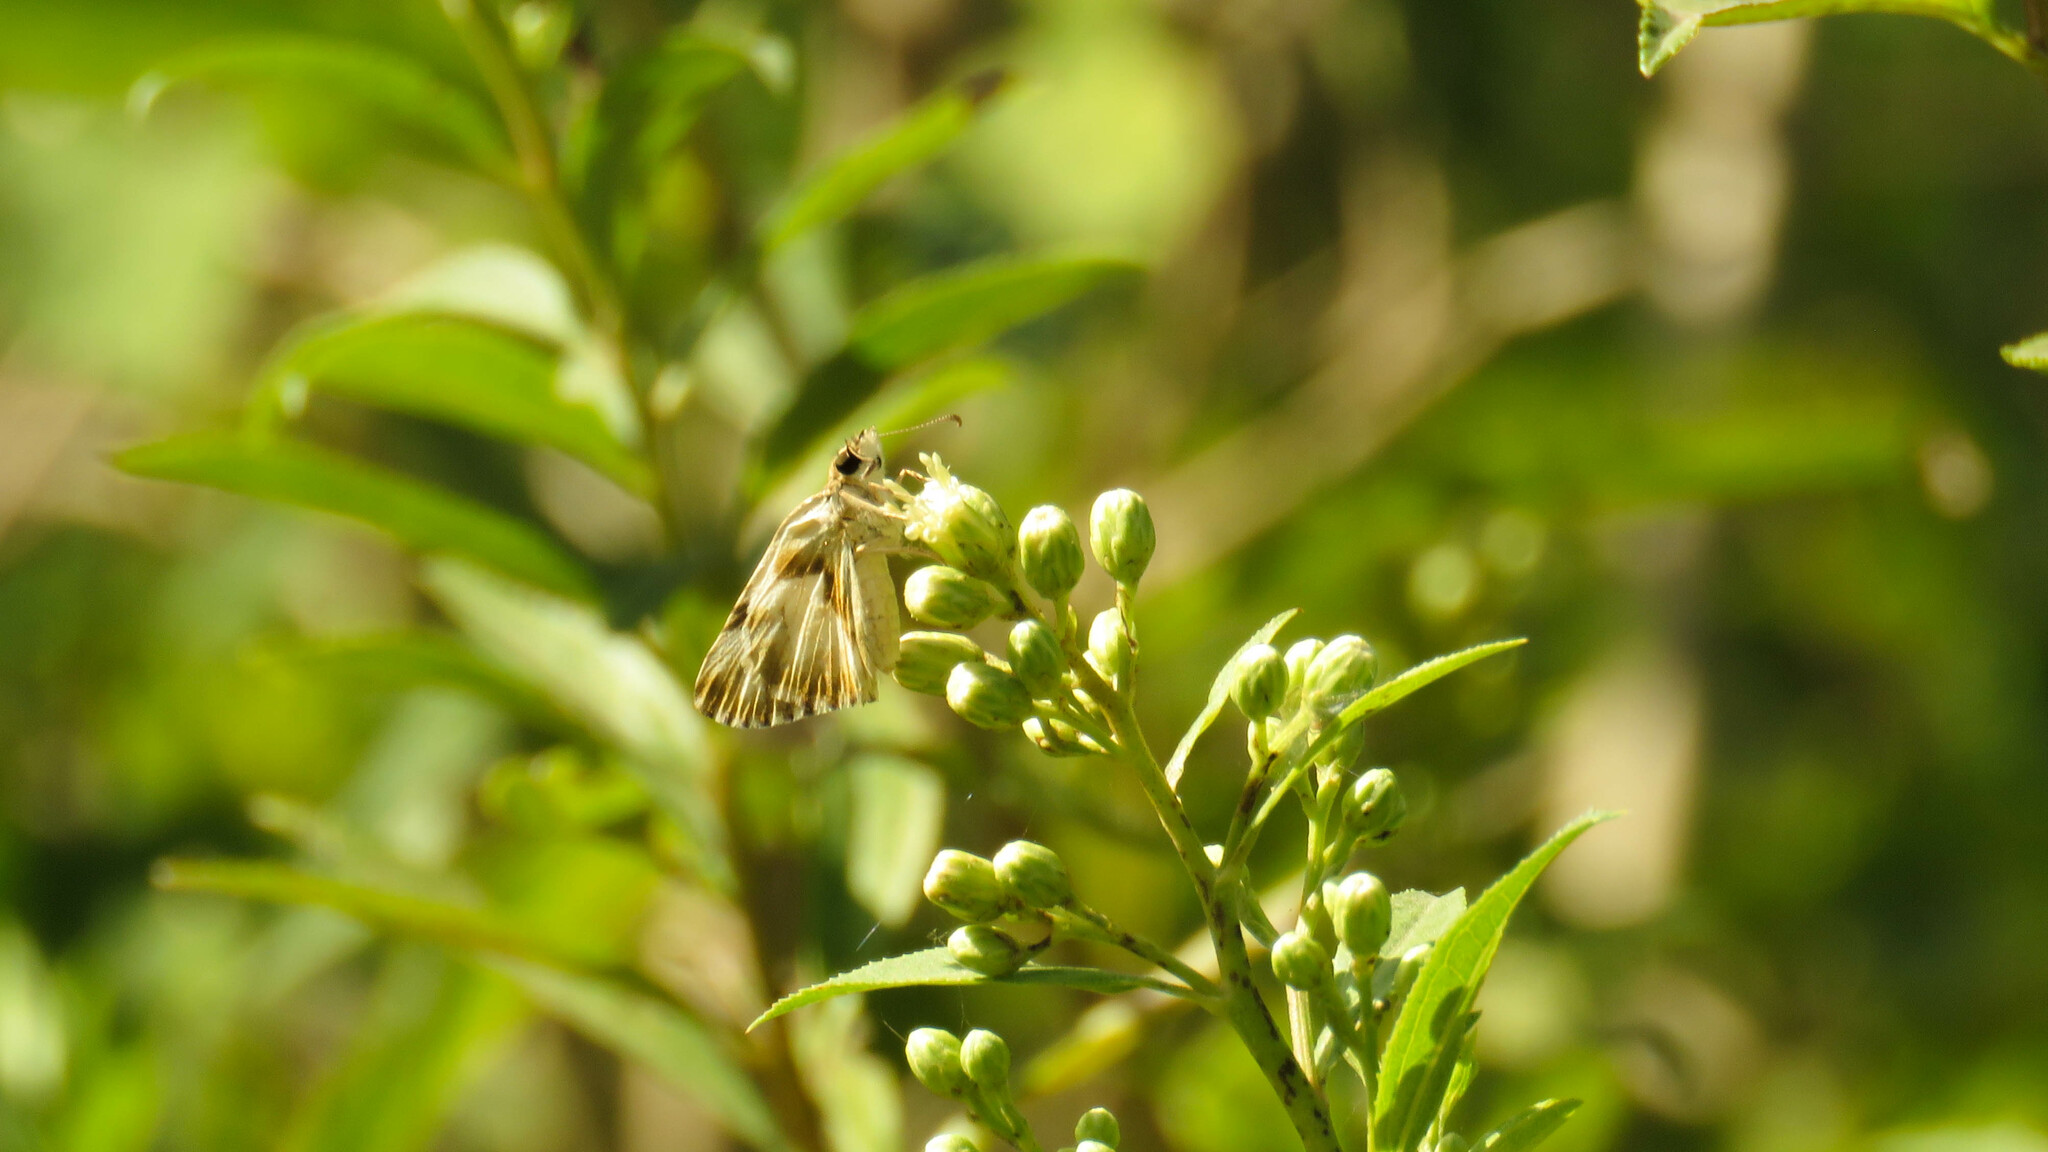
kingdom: Animalia
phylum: Arthropoda
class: Insecta
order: Lepidoptera
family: Hesperiidae
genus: Heliopetes
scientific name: Heliopetes omrina
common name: Stained white-skipper
